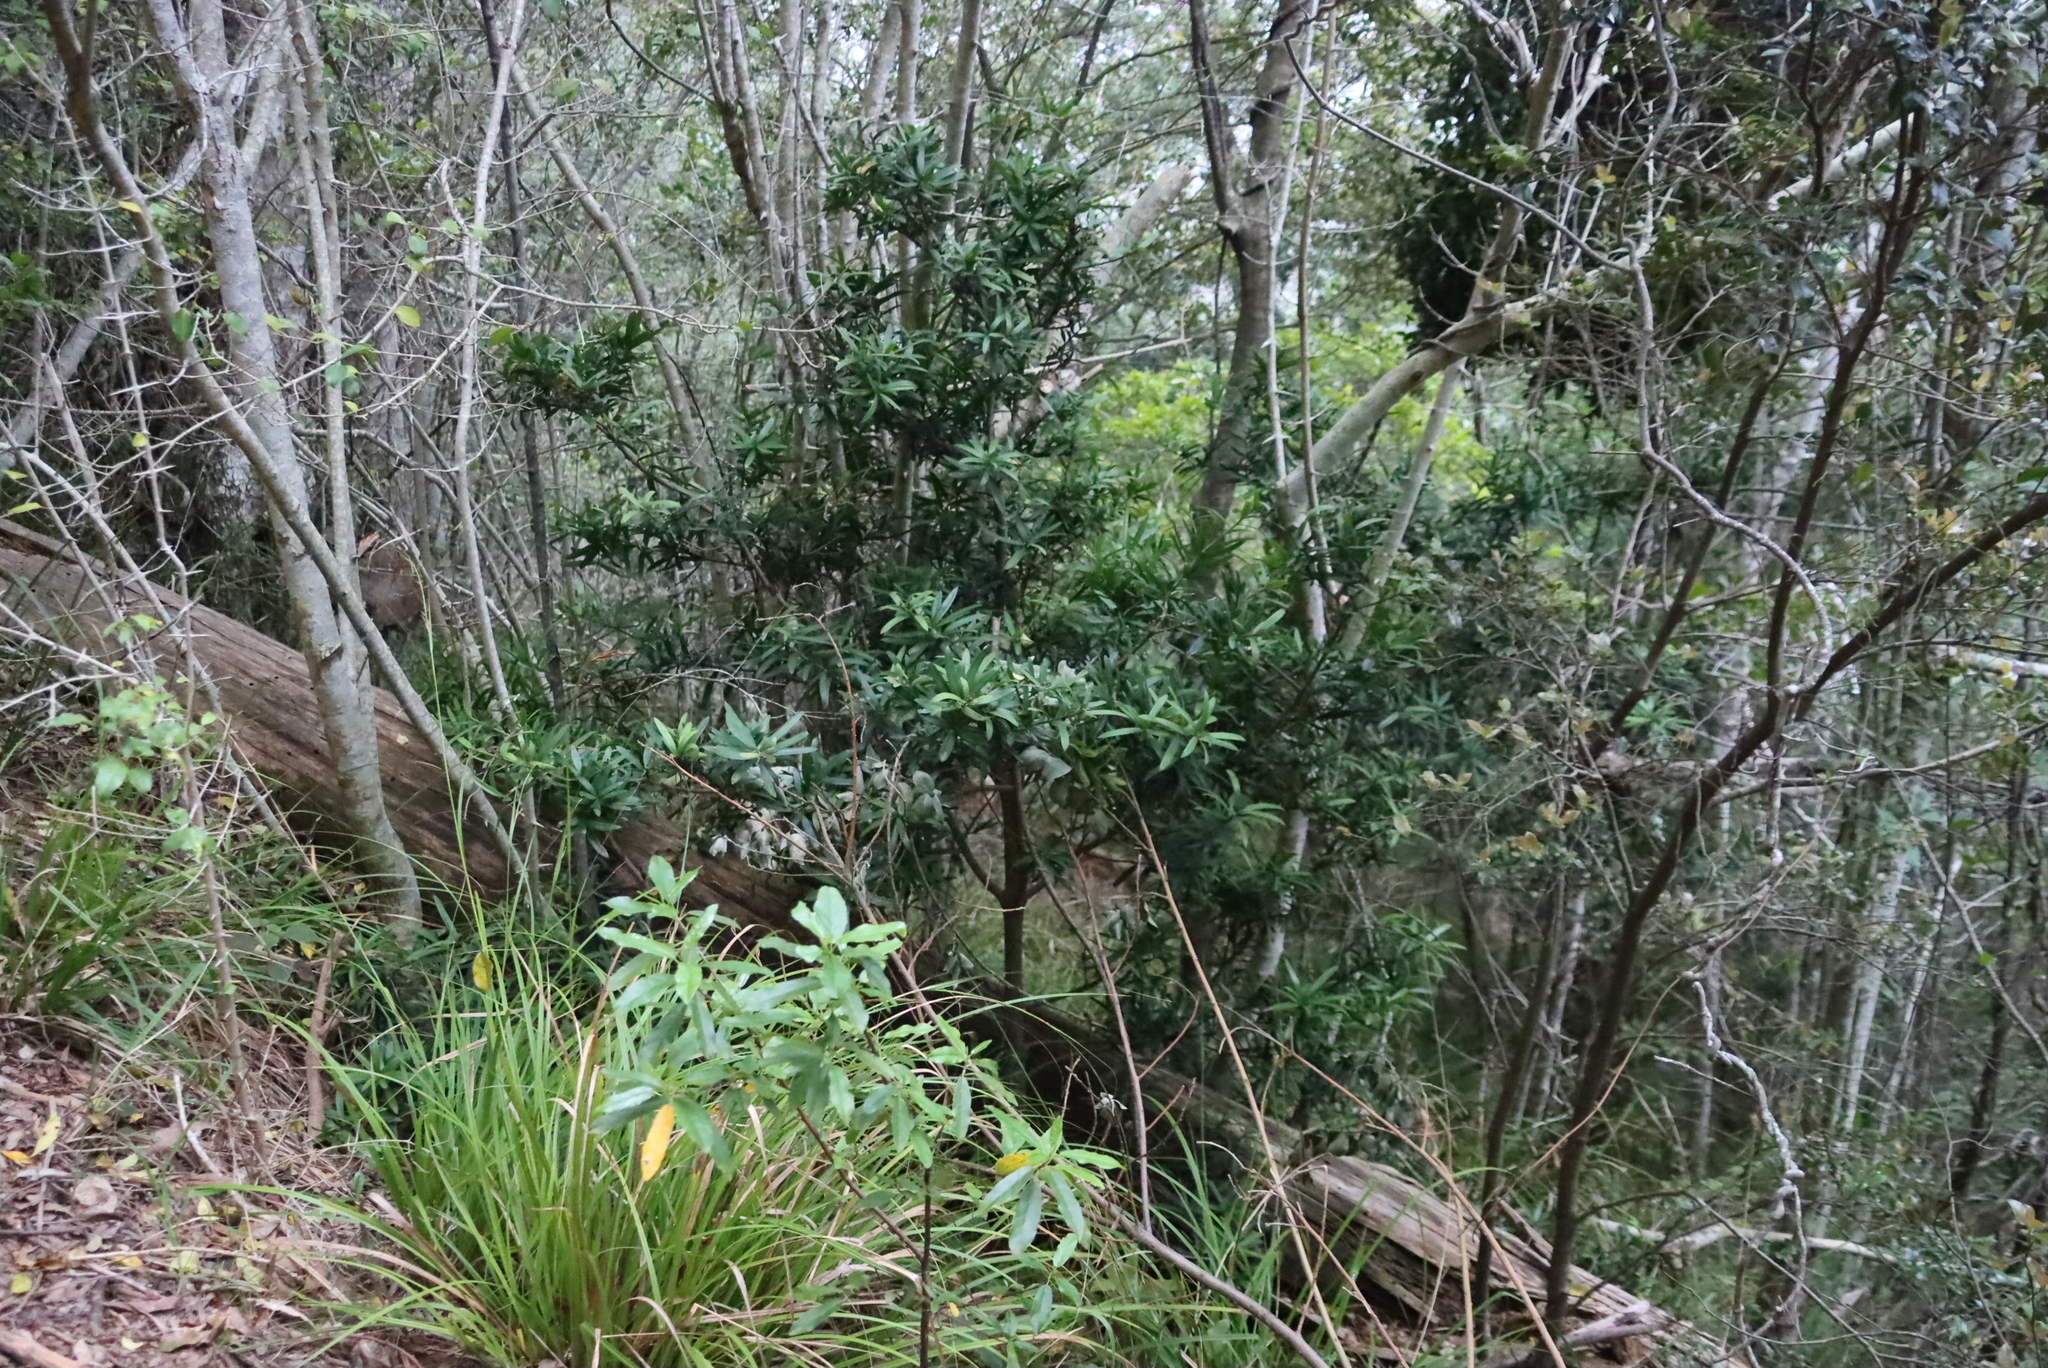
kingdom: Plantae
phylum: Tracheophyta
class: Pinopsida
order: Pinales
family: Podocarpaceae
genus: Podocarpus
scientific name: Podocarpus latifolius
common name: True yellowwood
